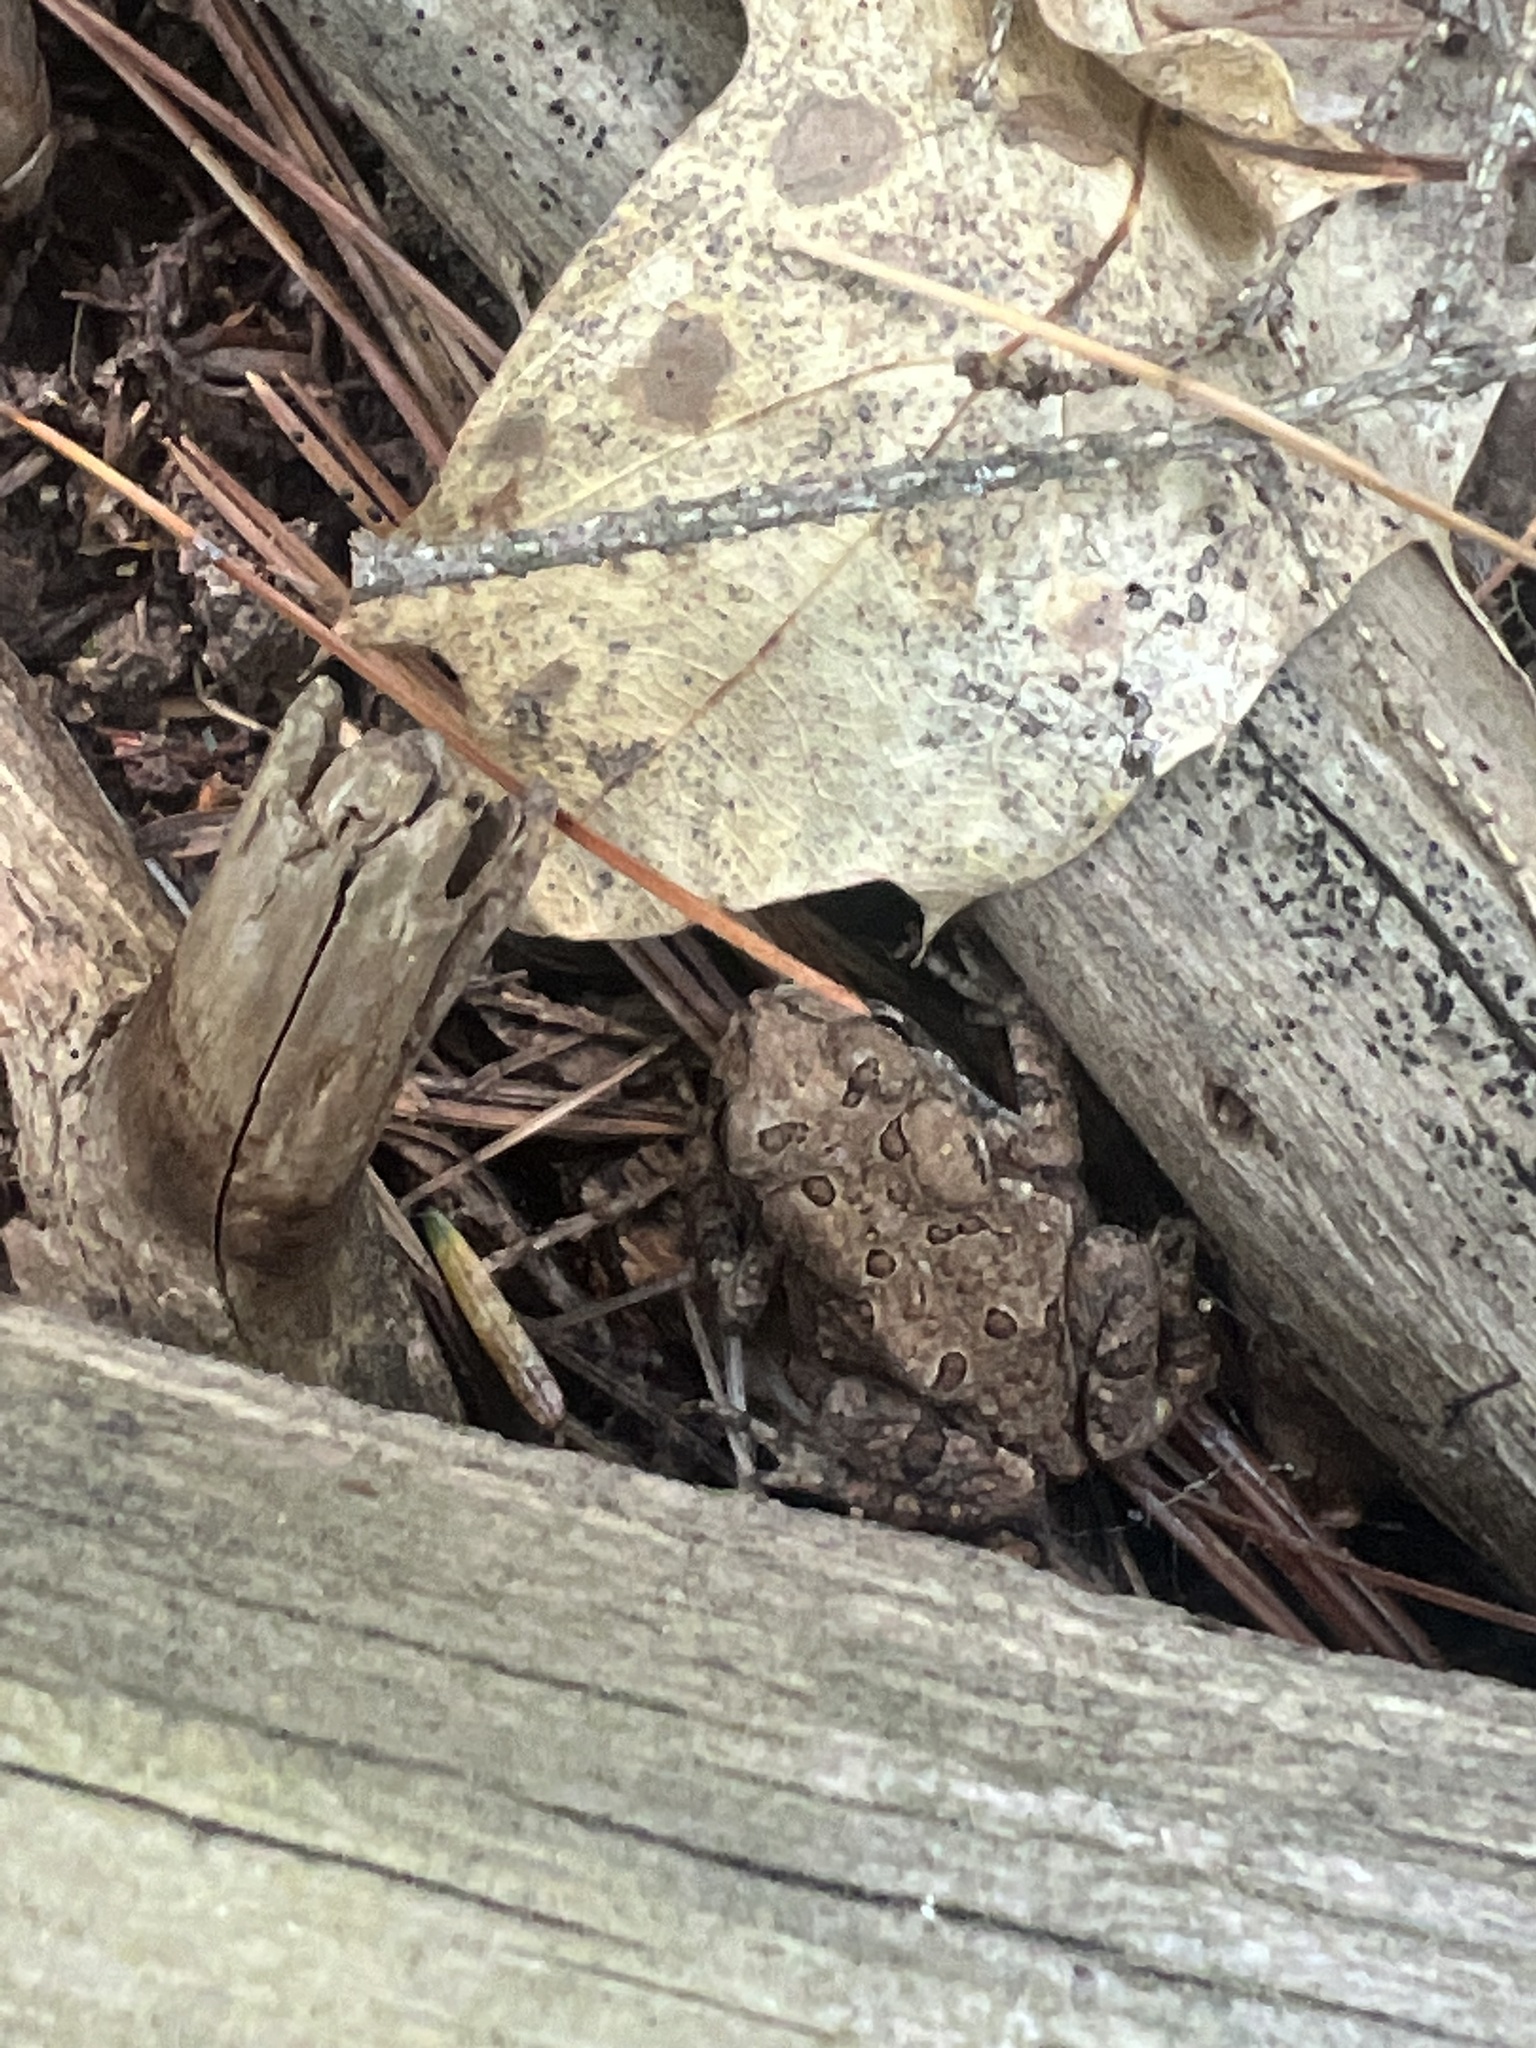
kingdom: Animalia
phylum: Chordata
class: Amphibia
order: Anura
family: Bufonidae
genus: Anaxyrus
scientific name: Anaxyrus americanus
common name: American toad
